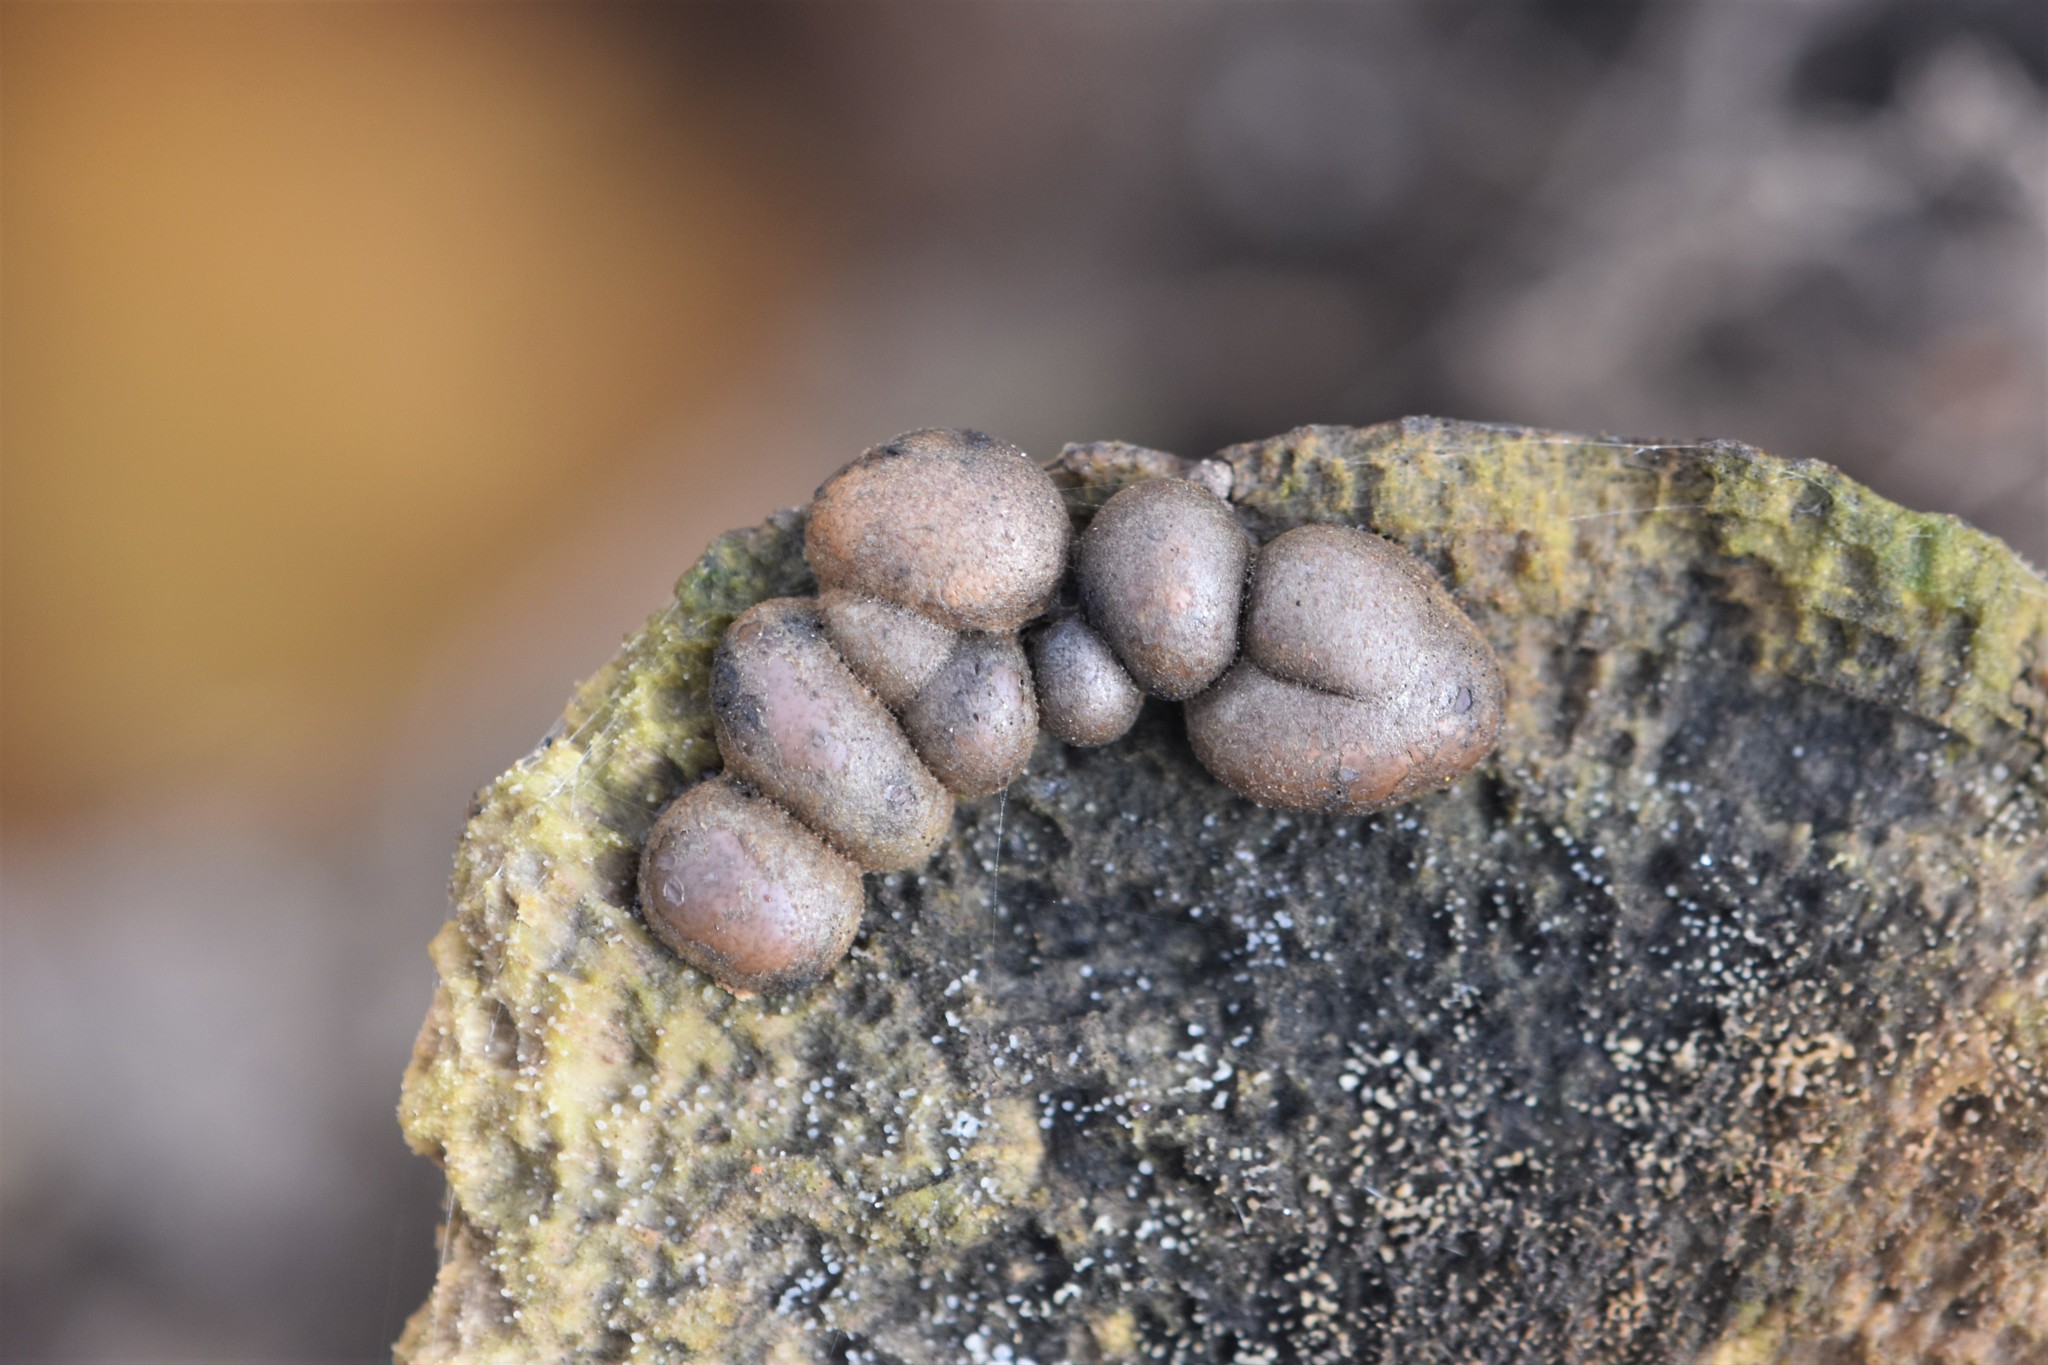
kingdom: Protozoa
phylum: Mycetozoa
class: Myxomycetes
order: Cribrariales
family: Tubiferaceae
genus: Lycogala
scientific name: Lycogala epidendrum
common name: Wolf's milk
